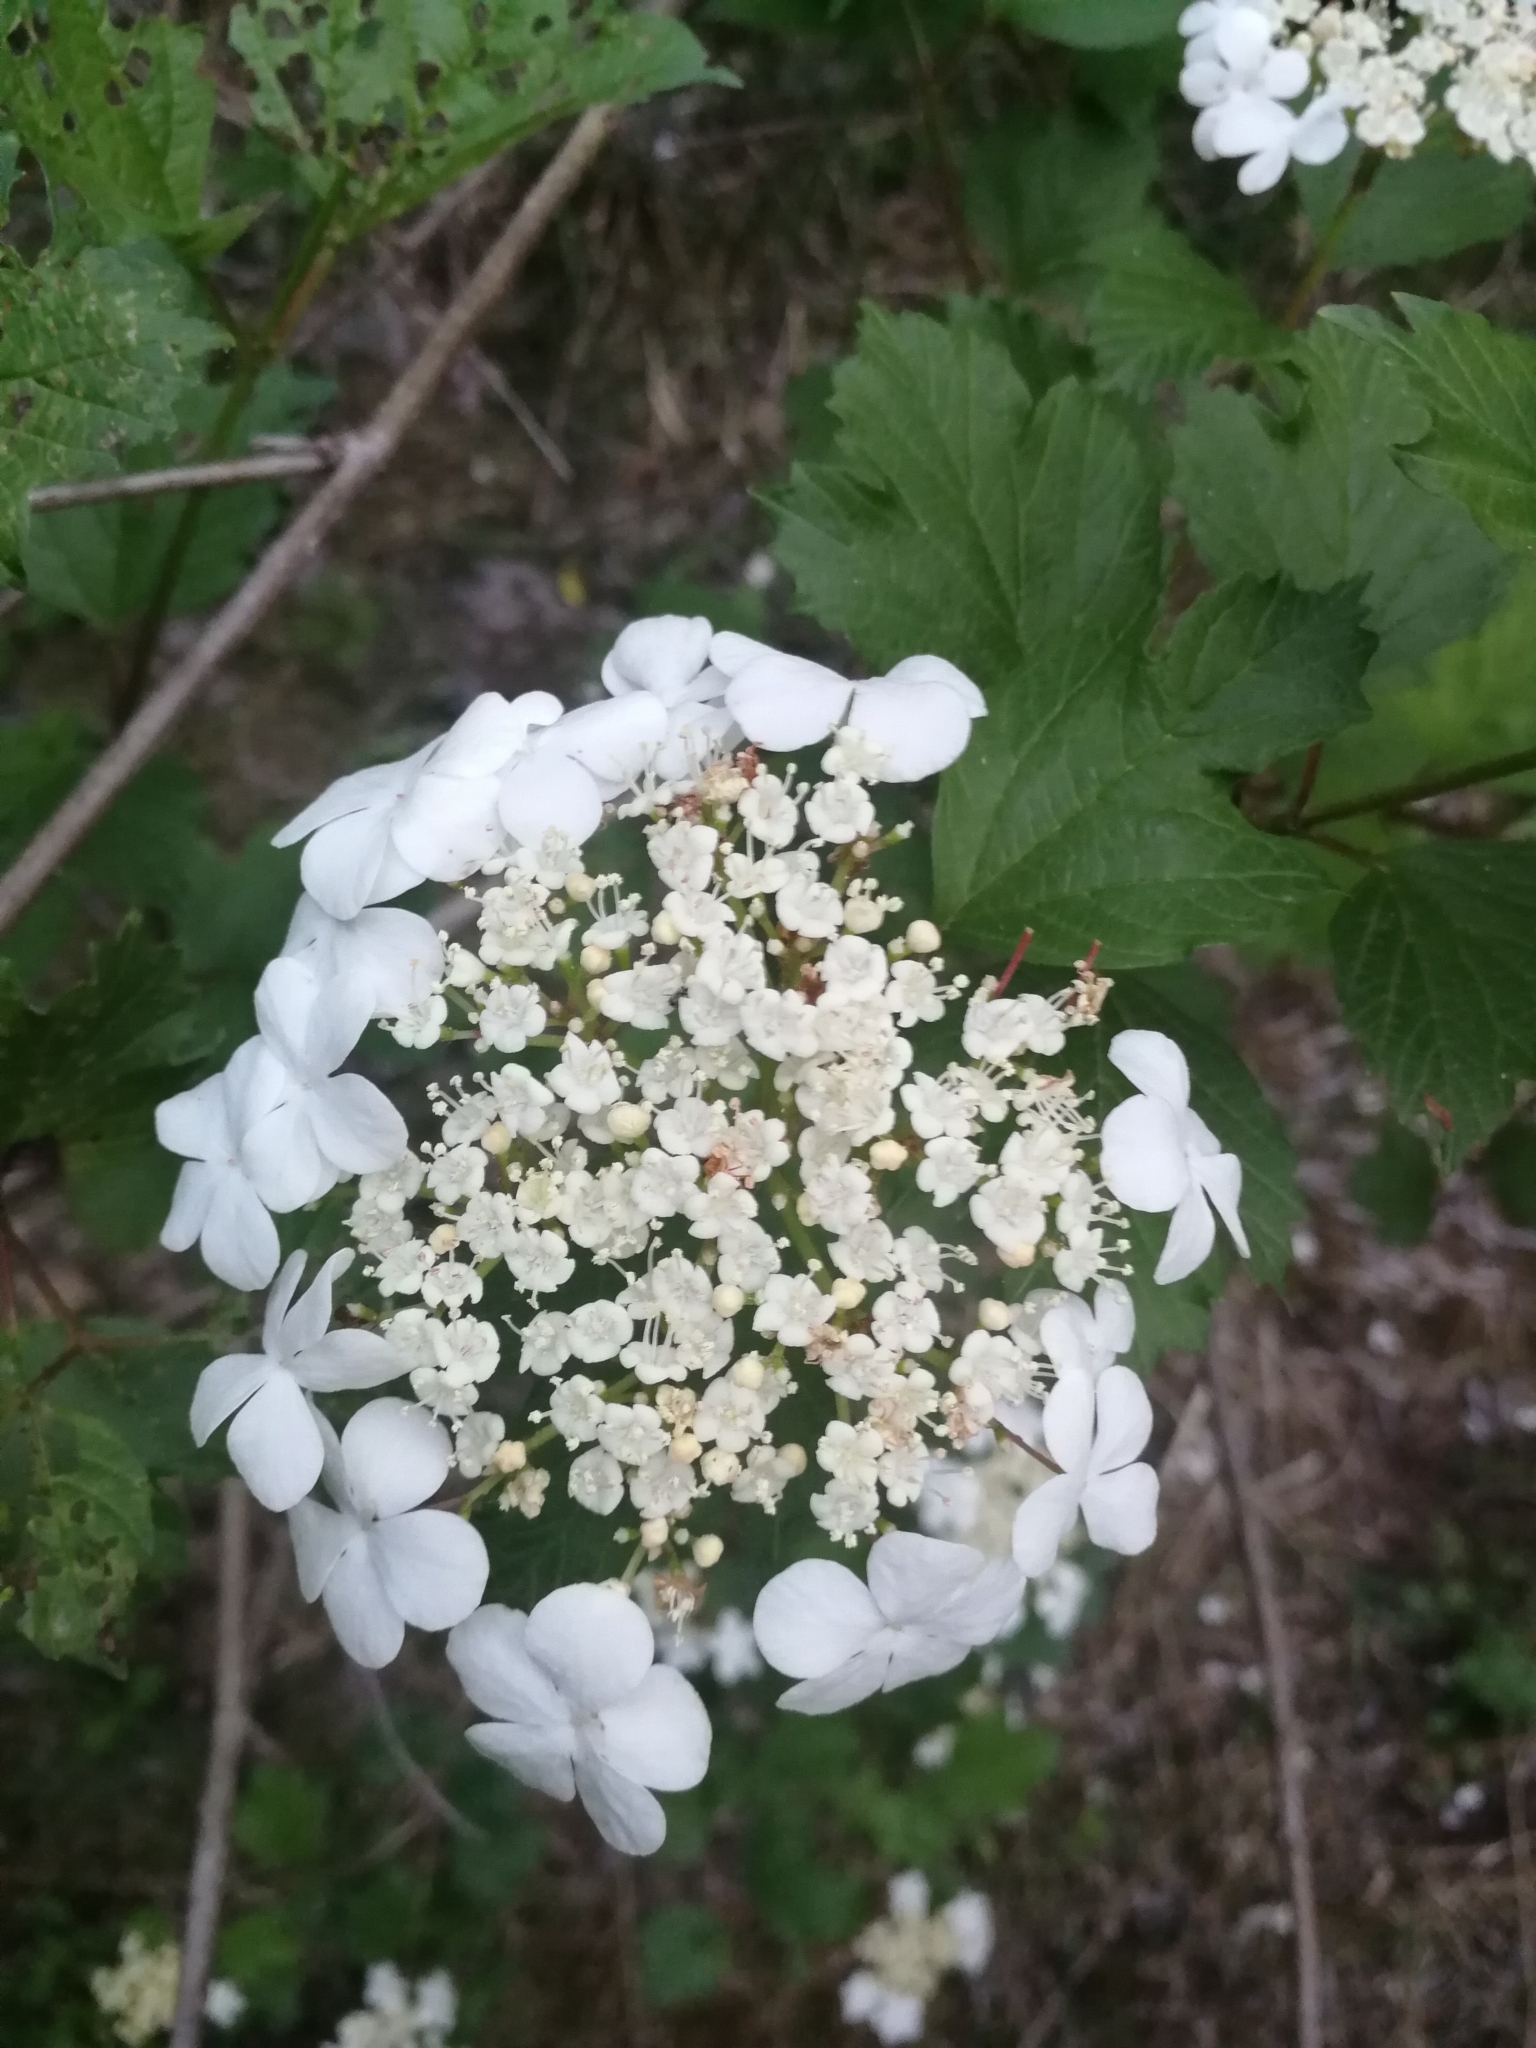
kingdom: Plantae
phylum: Tracheophyta
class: Magnoliopsida
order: Dipsacales
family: Viburnaceae
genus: Viburnum
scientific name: Viburnum opulus
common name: Guelder-rose
